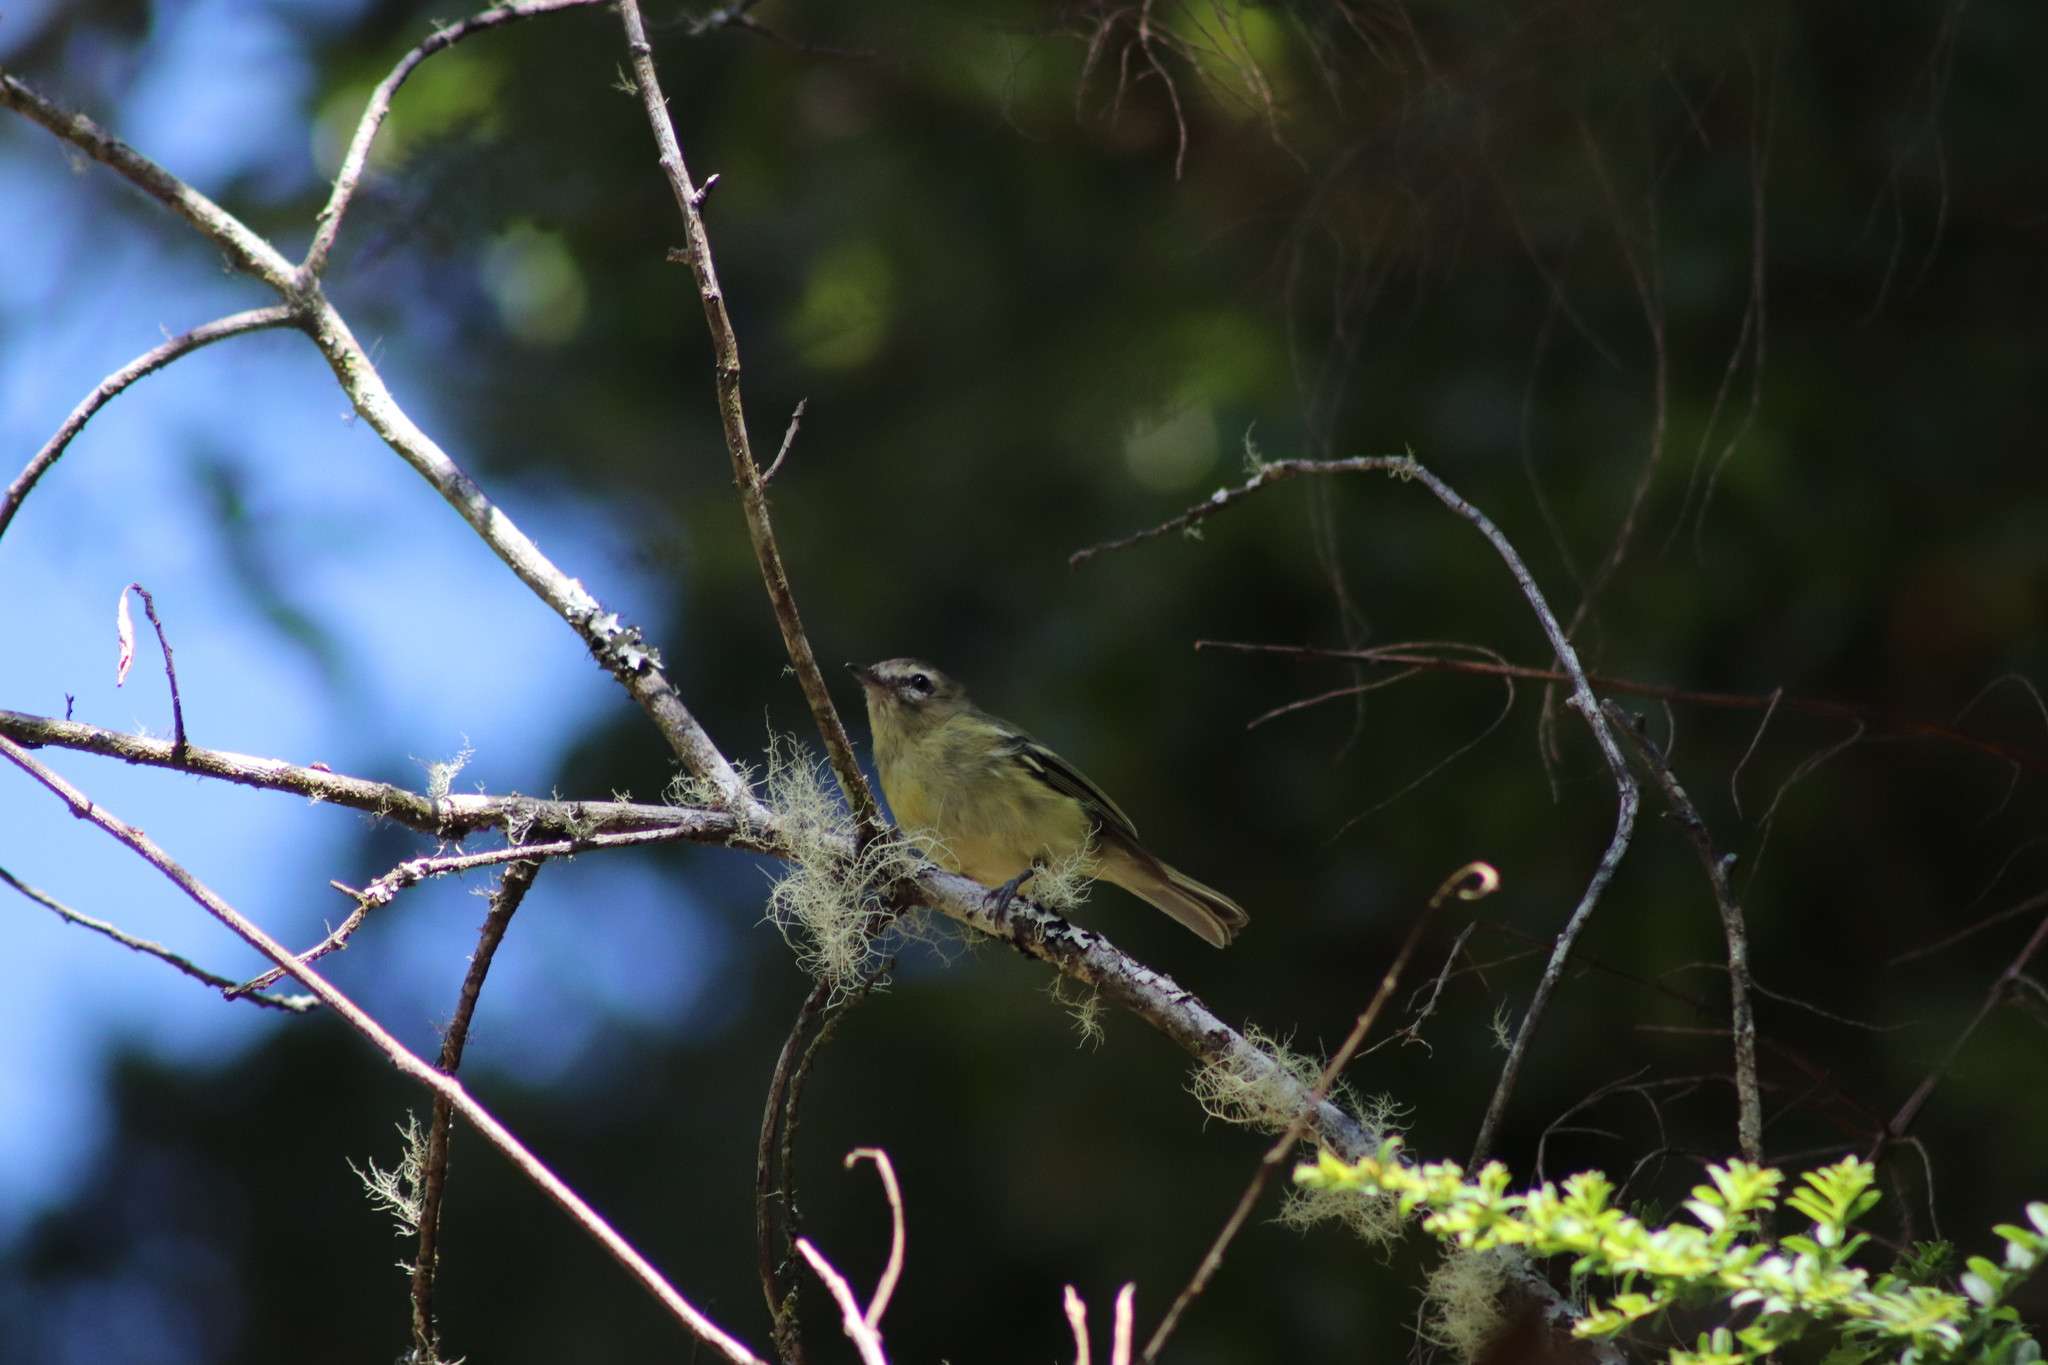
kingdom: Animalia
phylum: Chordata
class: Aves
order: Passeriformes
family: Vireonidae
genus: Vireo
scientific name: Vireo carmioli
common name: Yellow-winged vireo
